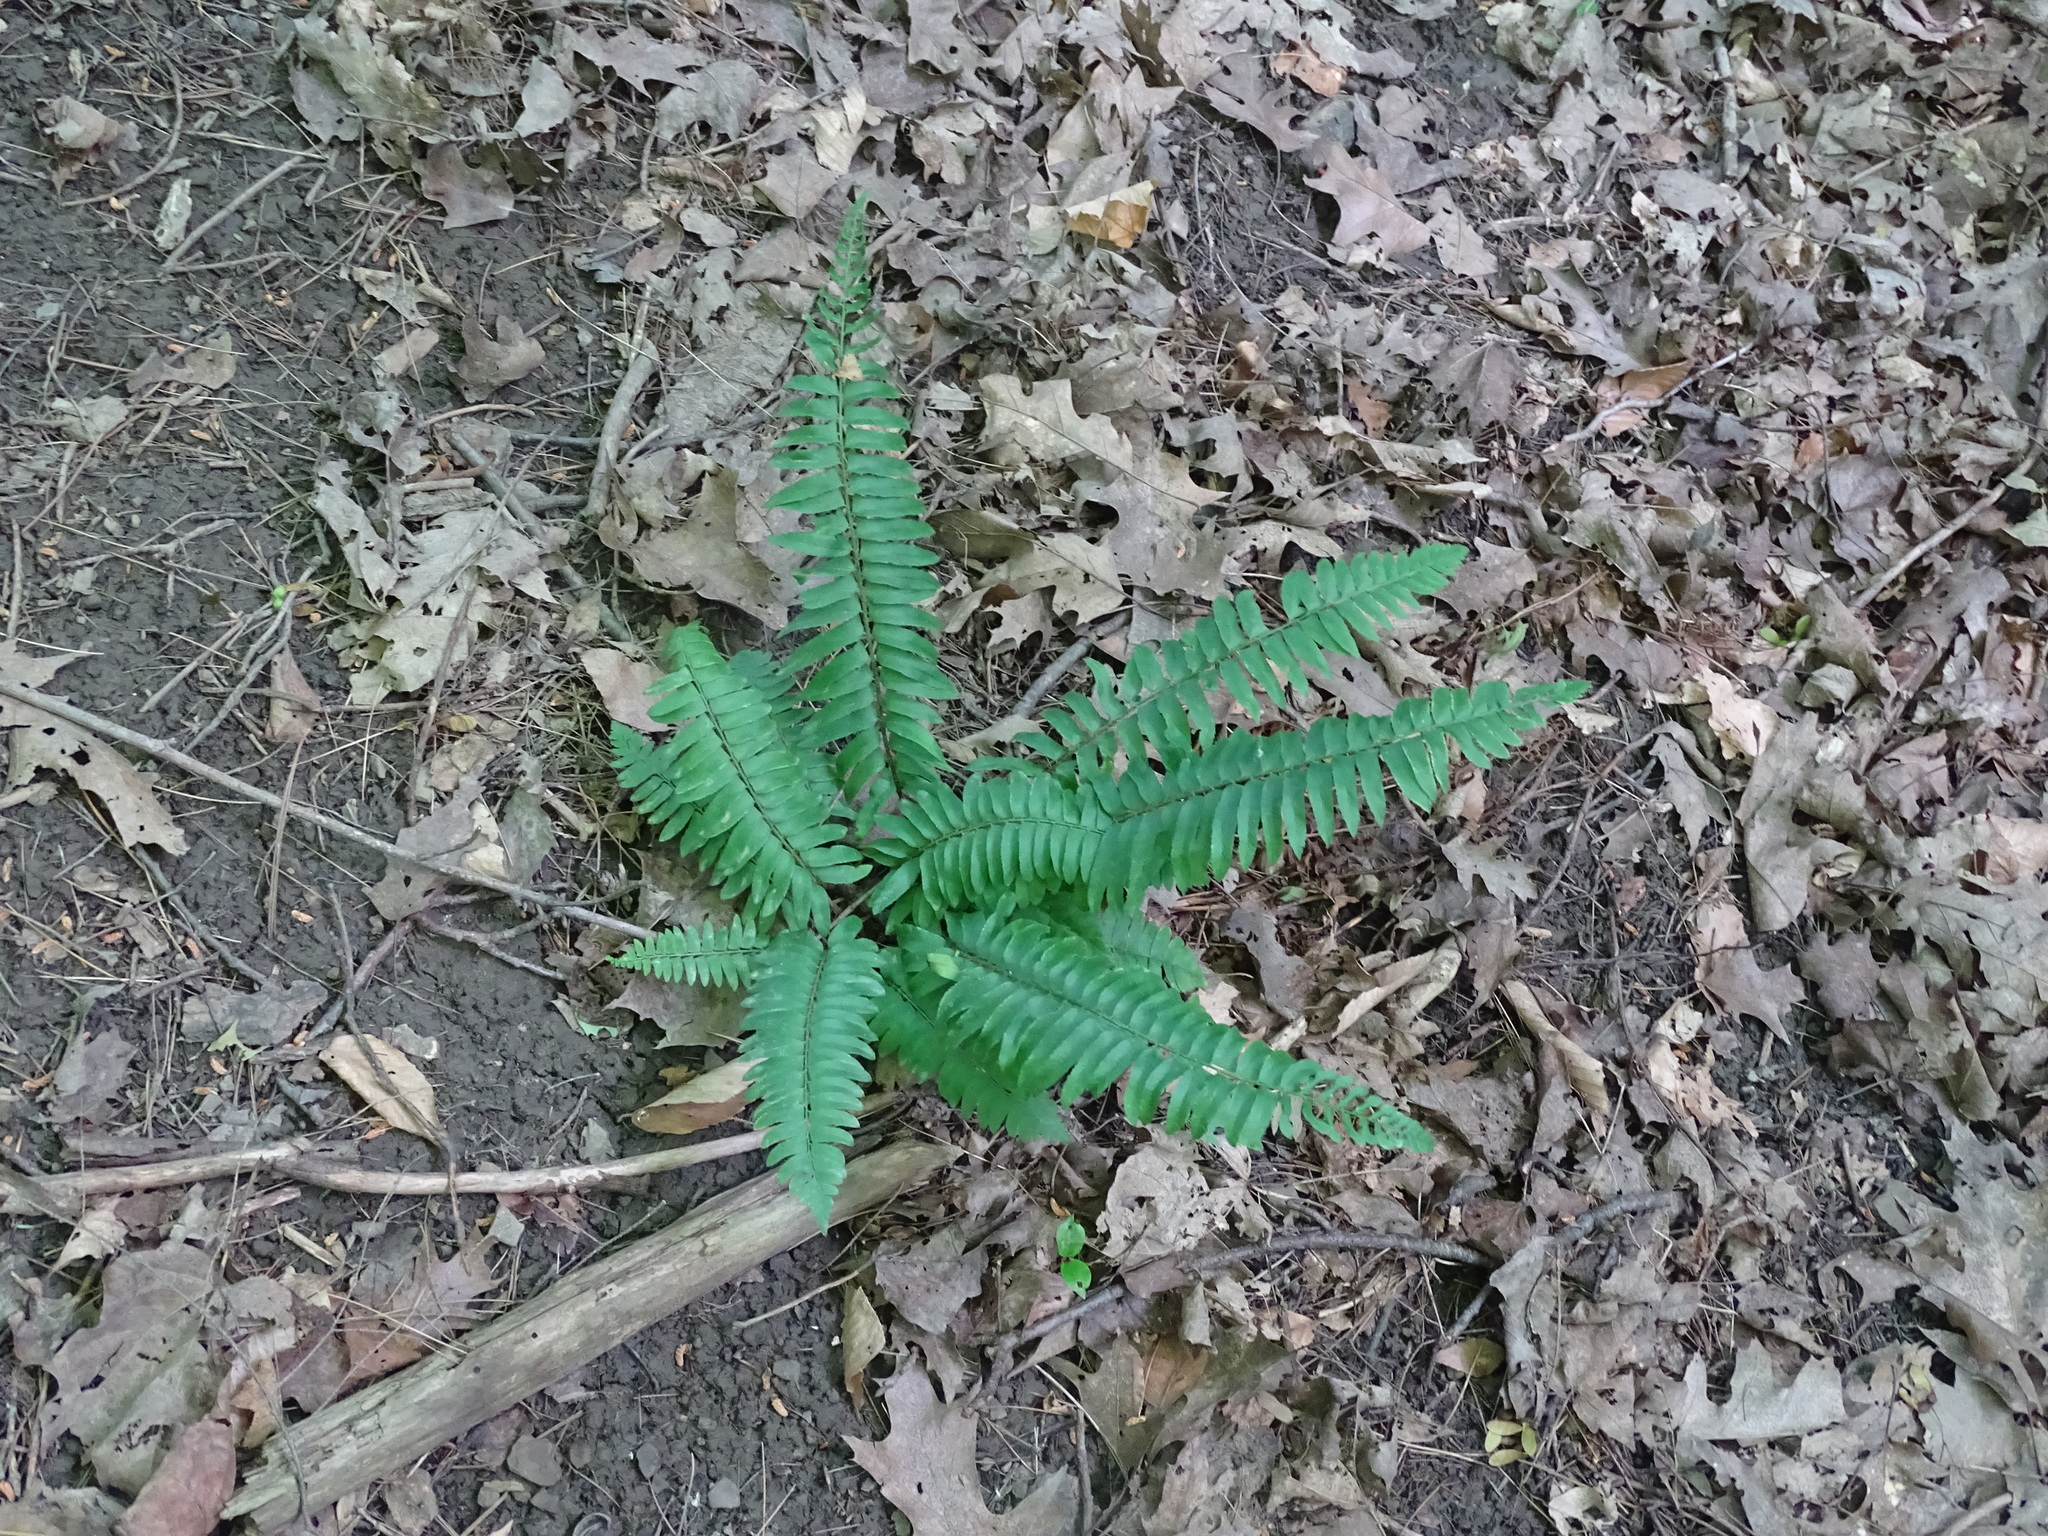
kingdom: Plantae
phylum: Tracheophyta
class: Polypodiopsida
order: Polypodiales
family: Dryopteridaceae
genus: Polystichum
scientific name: Polystichum acrostichoides
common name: Christmas fern
